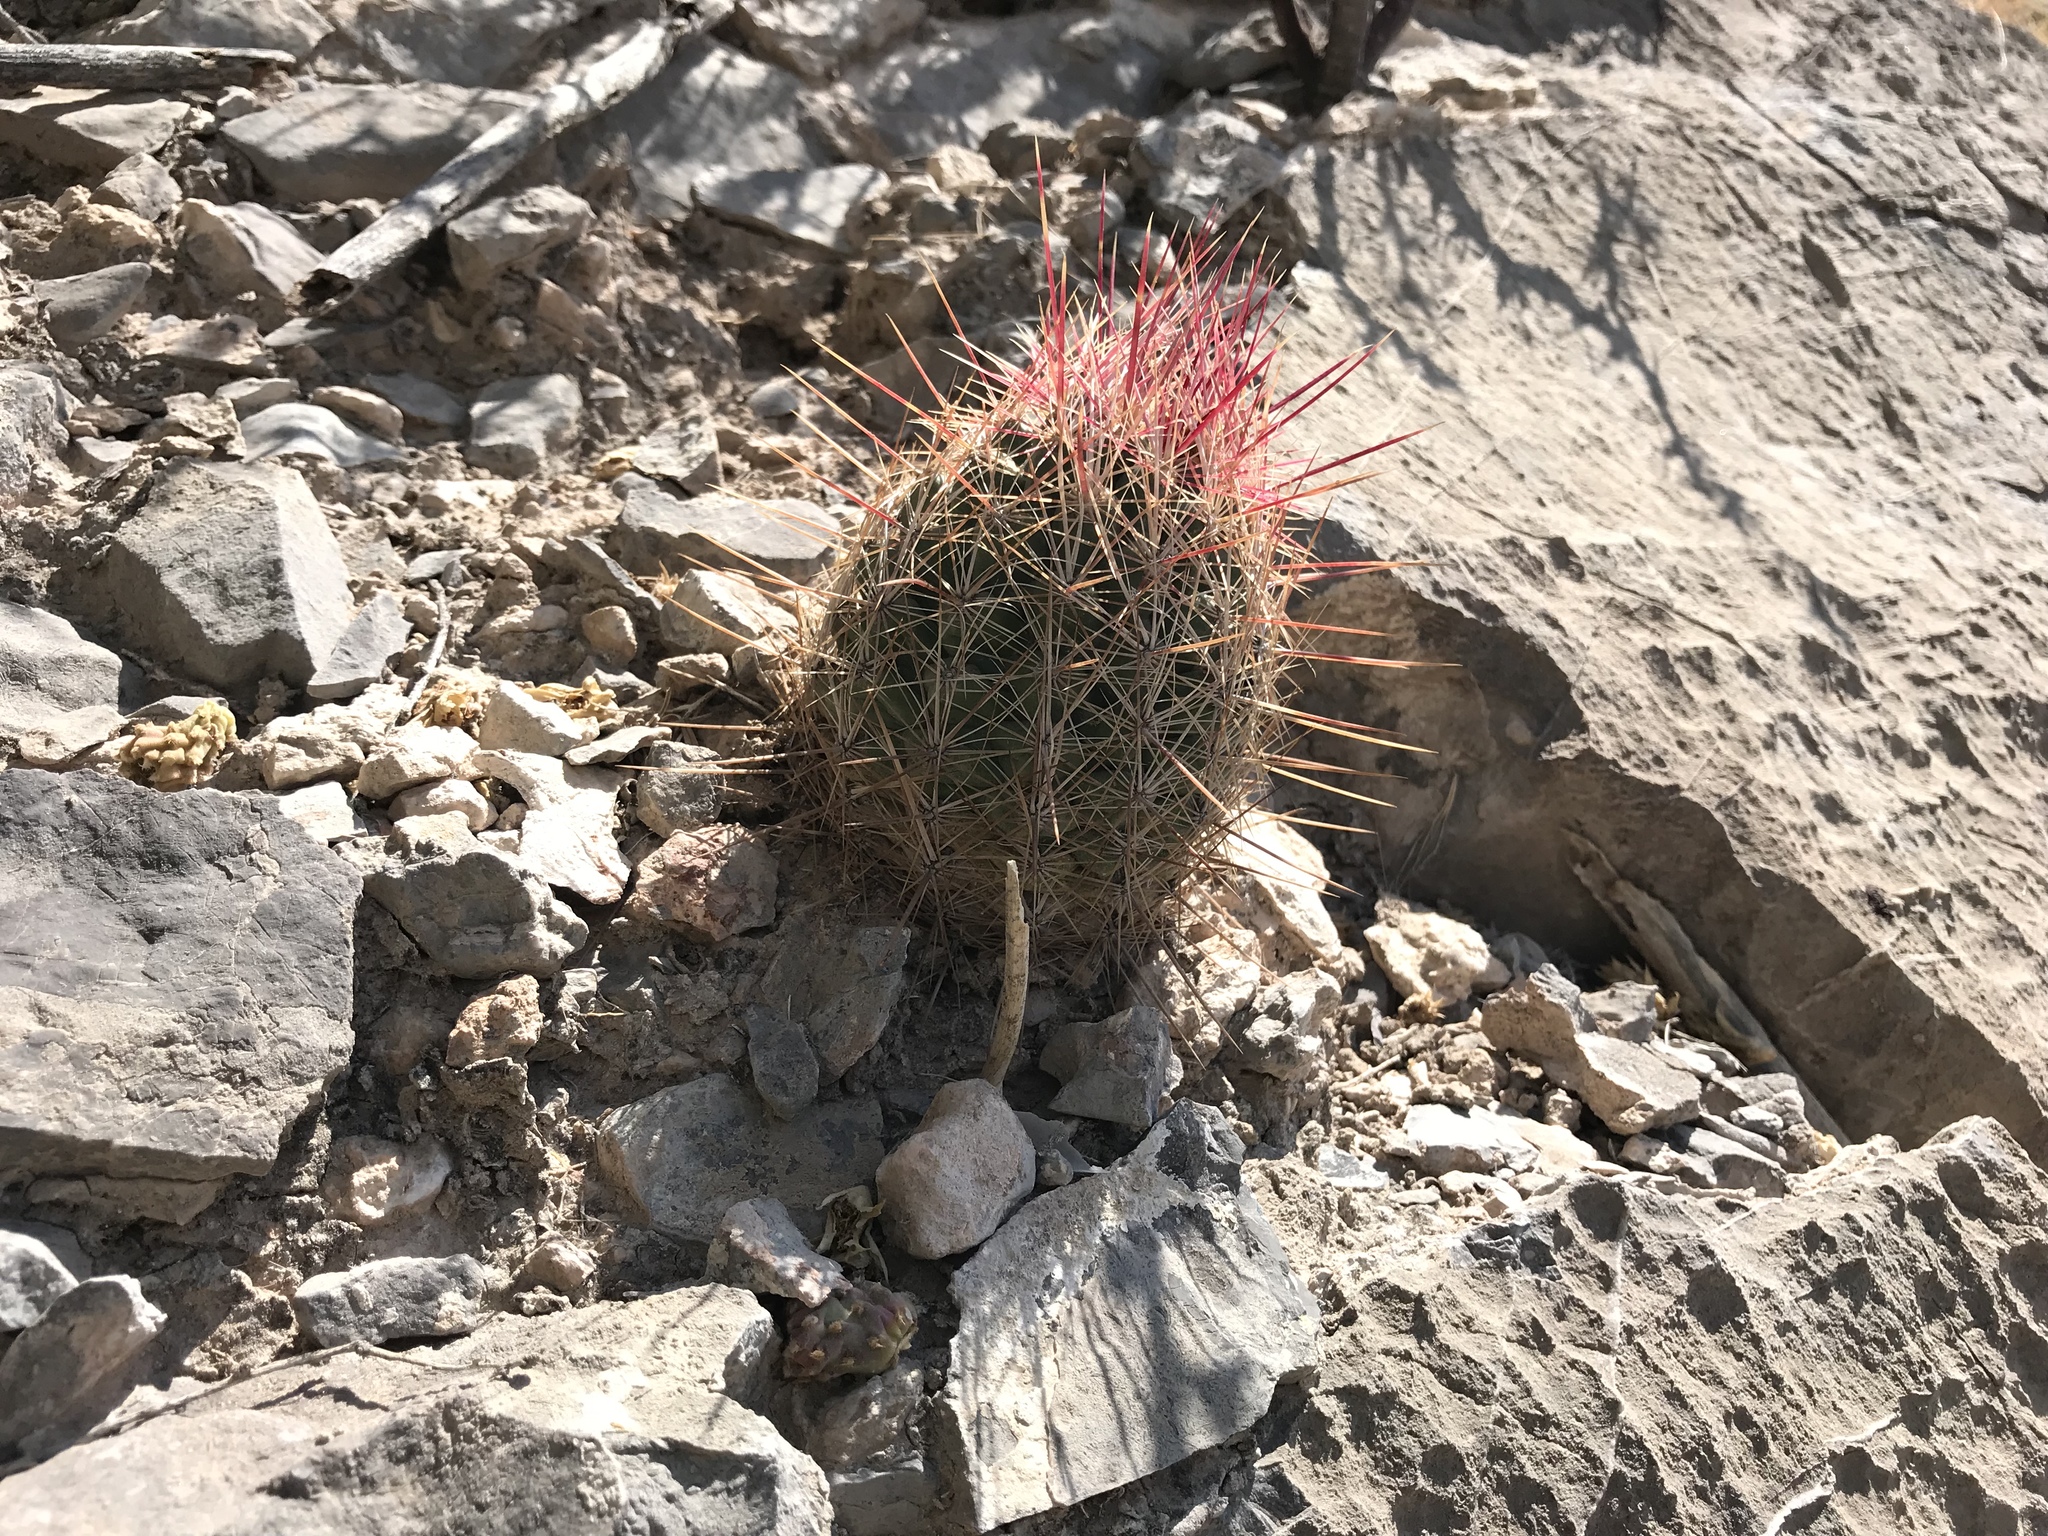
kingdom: Plantae
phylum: Tracheophyta
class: Magnoliopsida
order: Caryophyllales
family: Cactaceae
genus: Thelocactus
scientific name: Thelocactus bicolor
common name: Glory of texas
